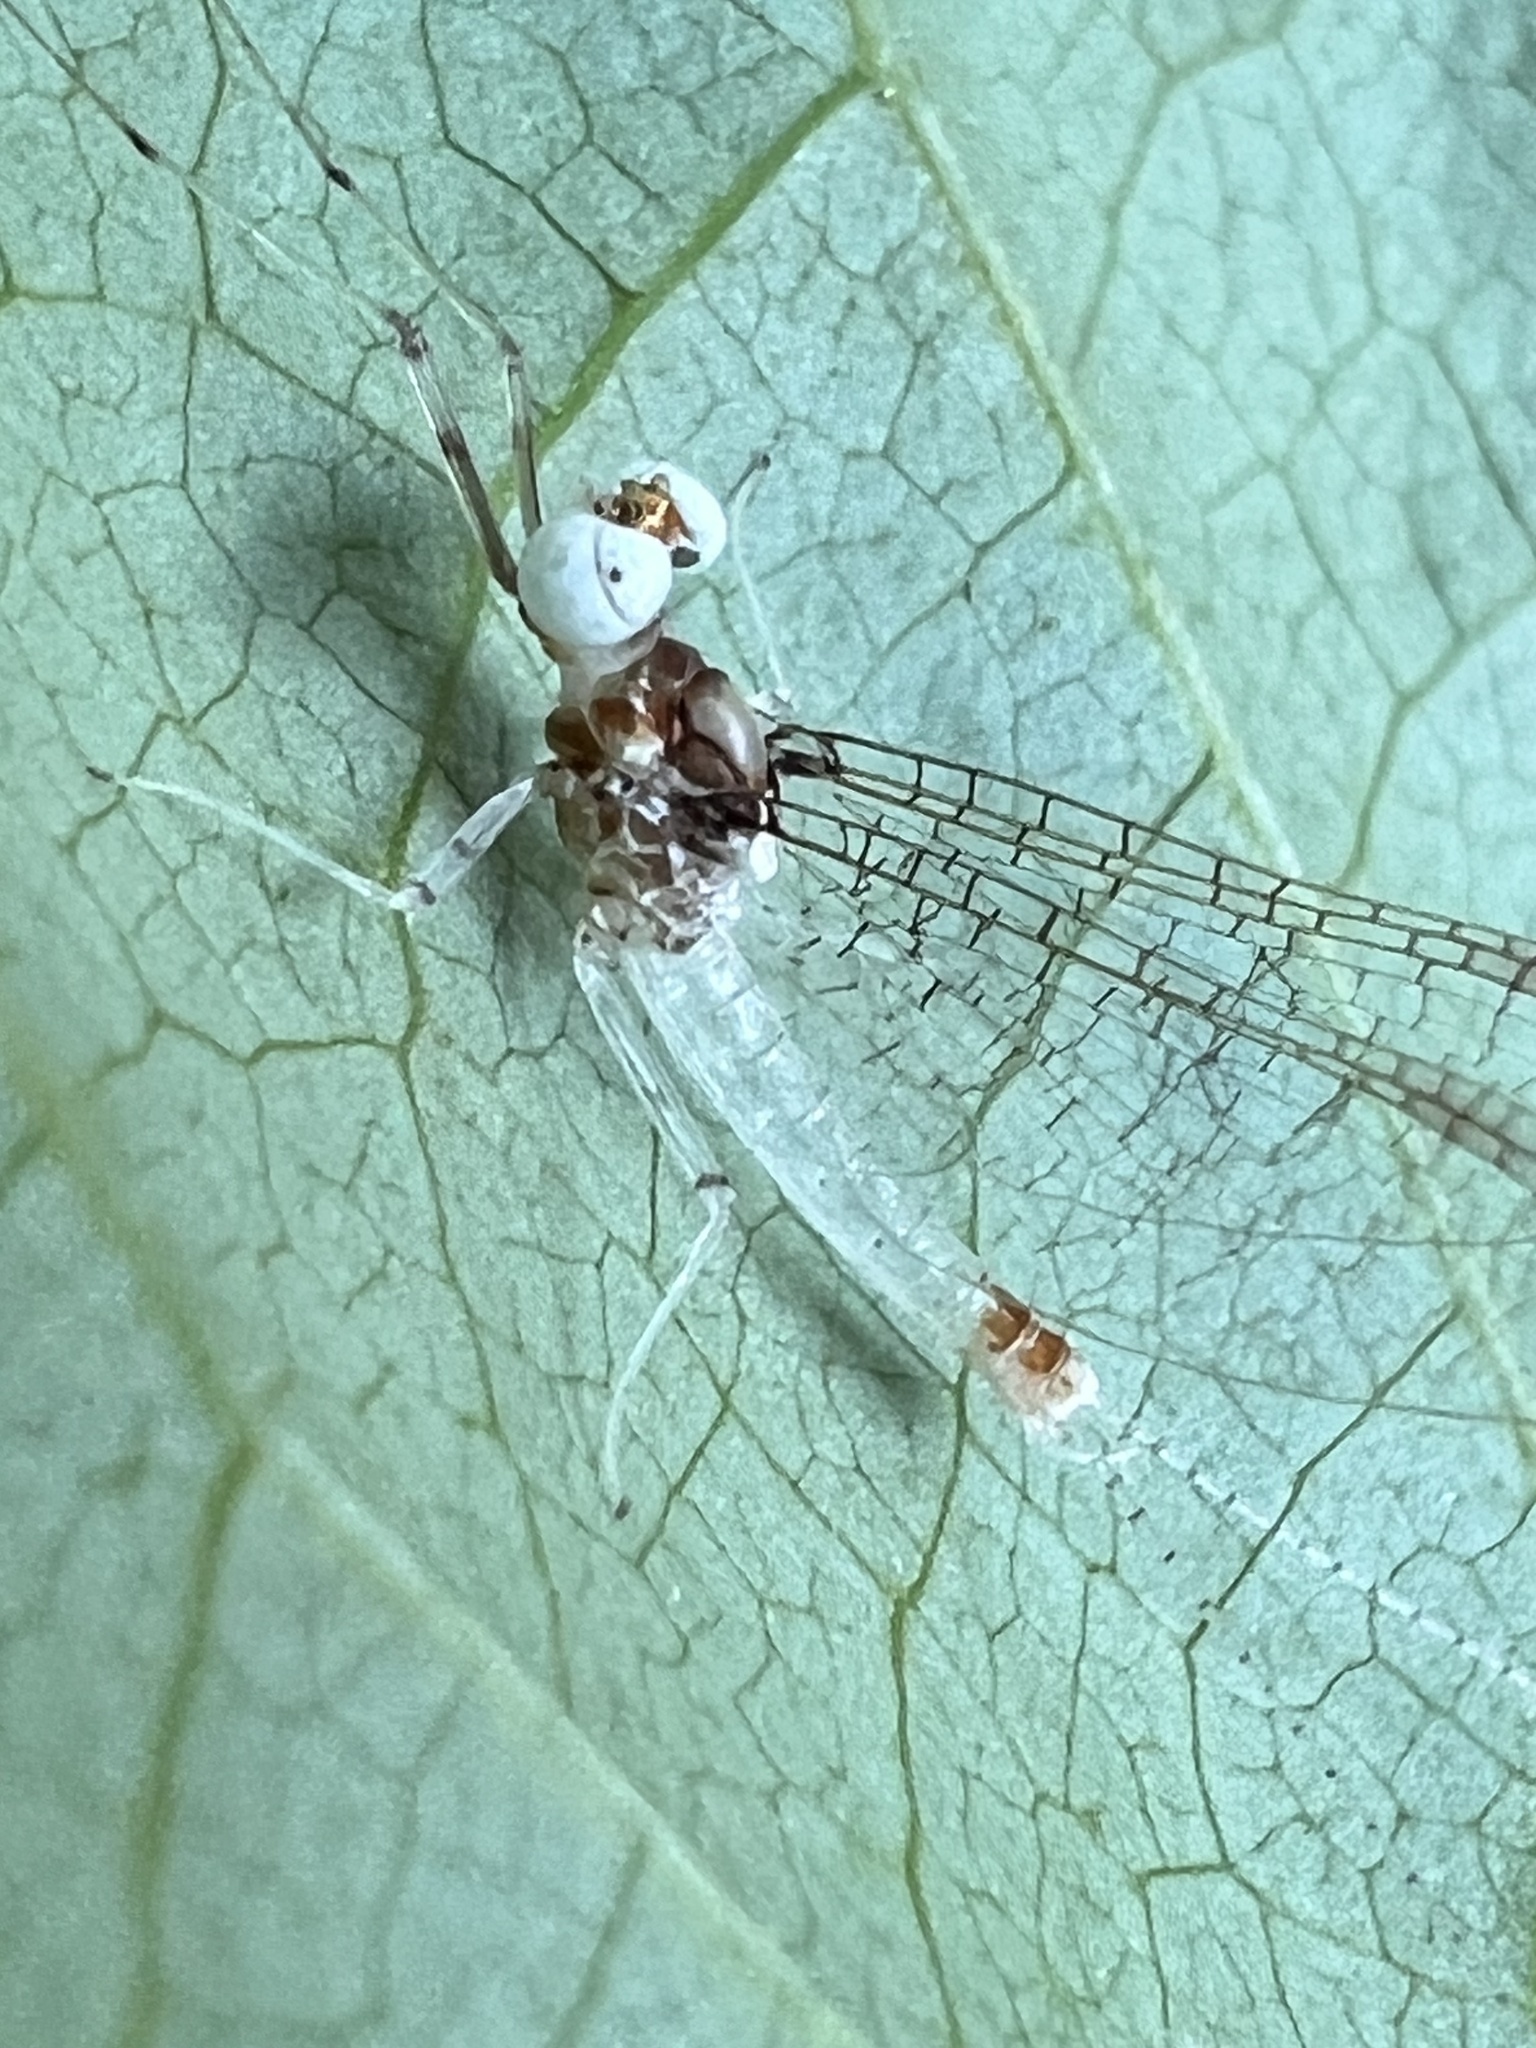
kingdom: Animalia
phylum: Arthropoda
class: Insecta
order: Ephemeroptera
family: Heptageniidae
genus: Maccaffertium
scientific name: Maccaffertium modestum
